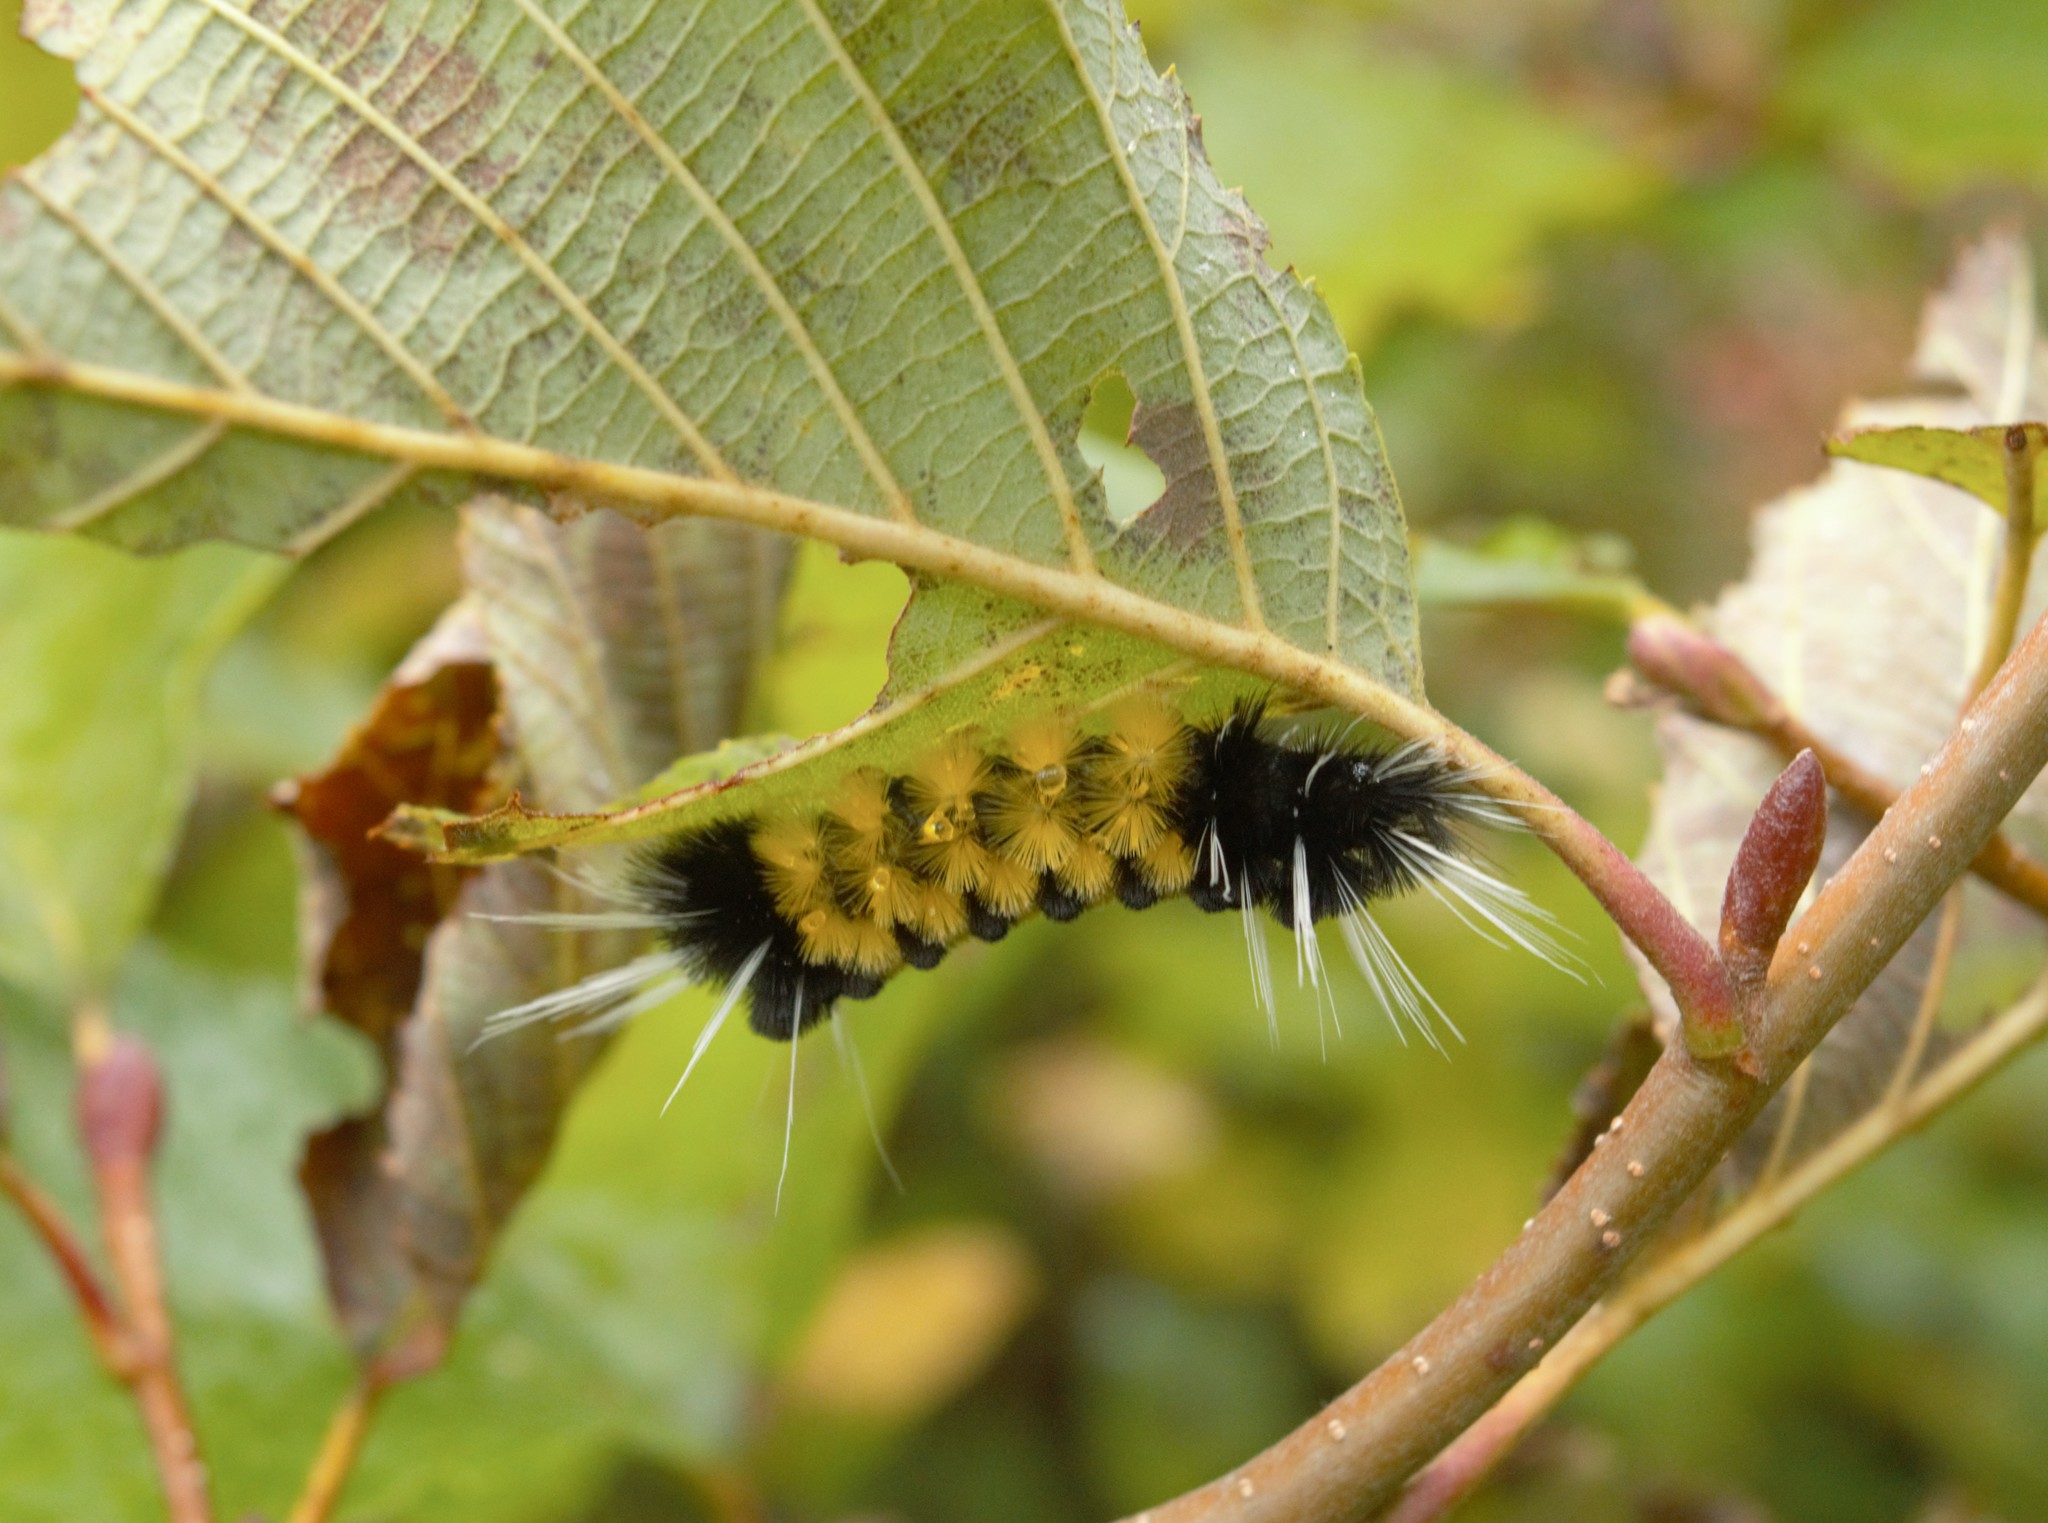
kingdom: Animalia
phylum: Arthropoda
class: Insecta
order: Lepidoptera
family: Erebidae
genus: Lophocampa
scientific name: Lophocampa maculata
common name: Spotted tussock moth
